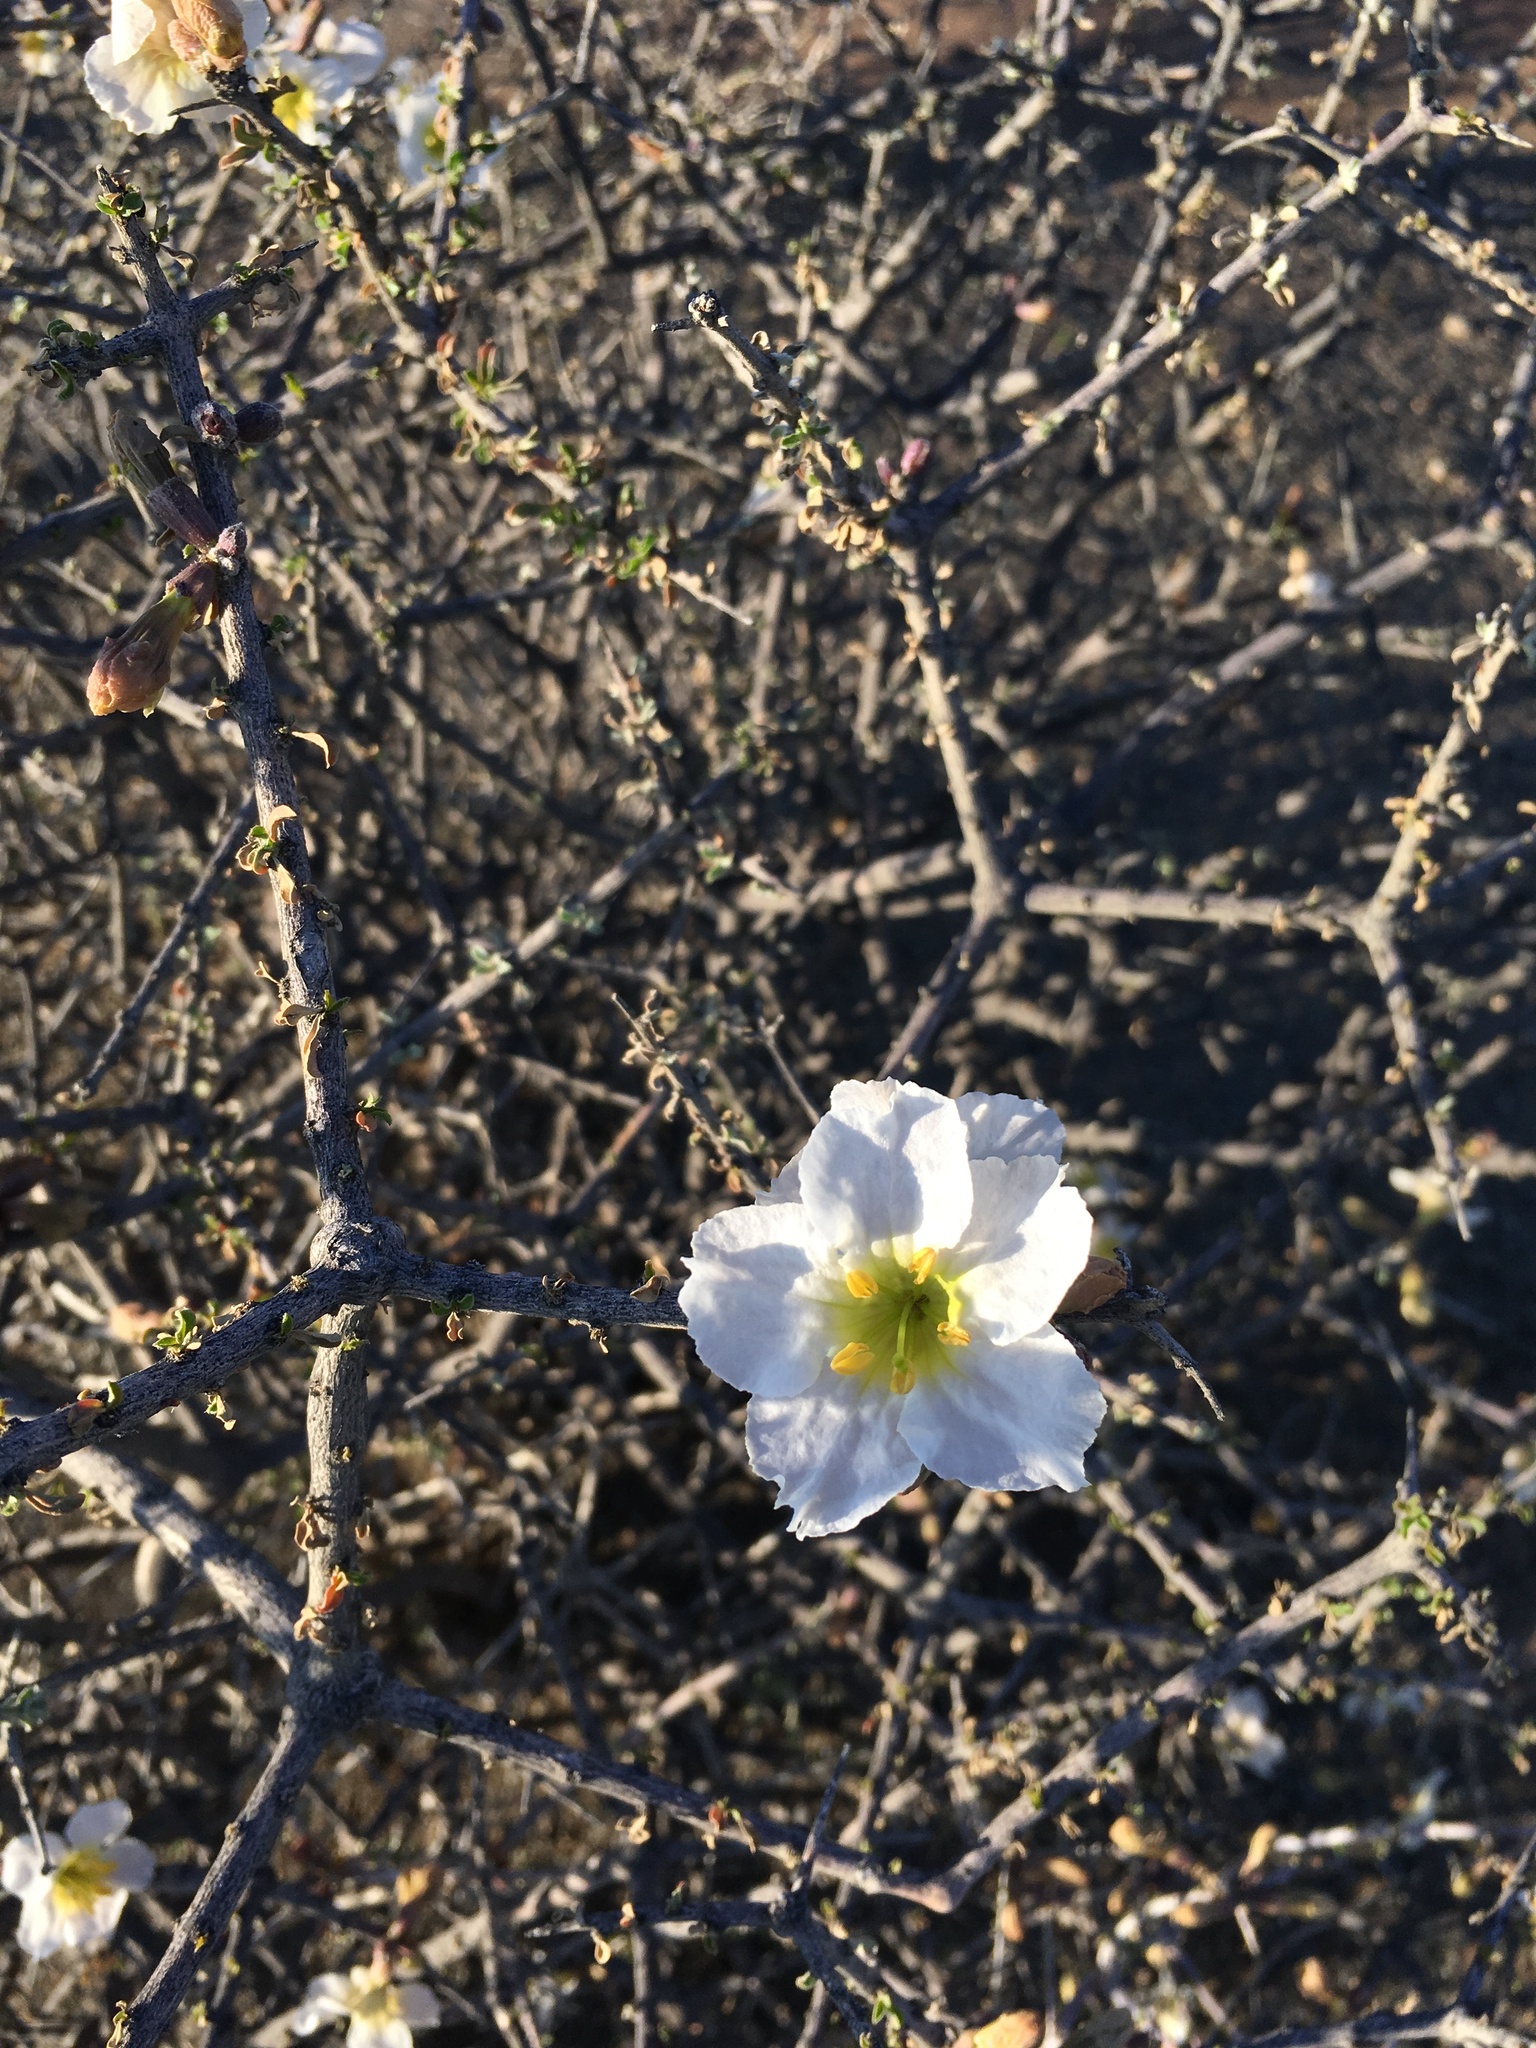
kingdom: Plantae
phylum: Tracheophyta
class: Magnoliopsida
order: Lamiales
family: Bignoniaceae
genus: Rhigozum
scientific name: Rhigozum trichotomum
